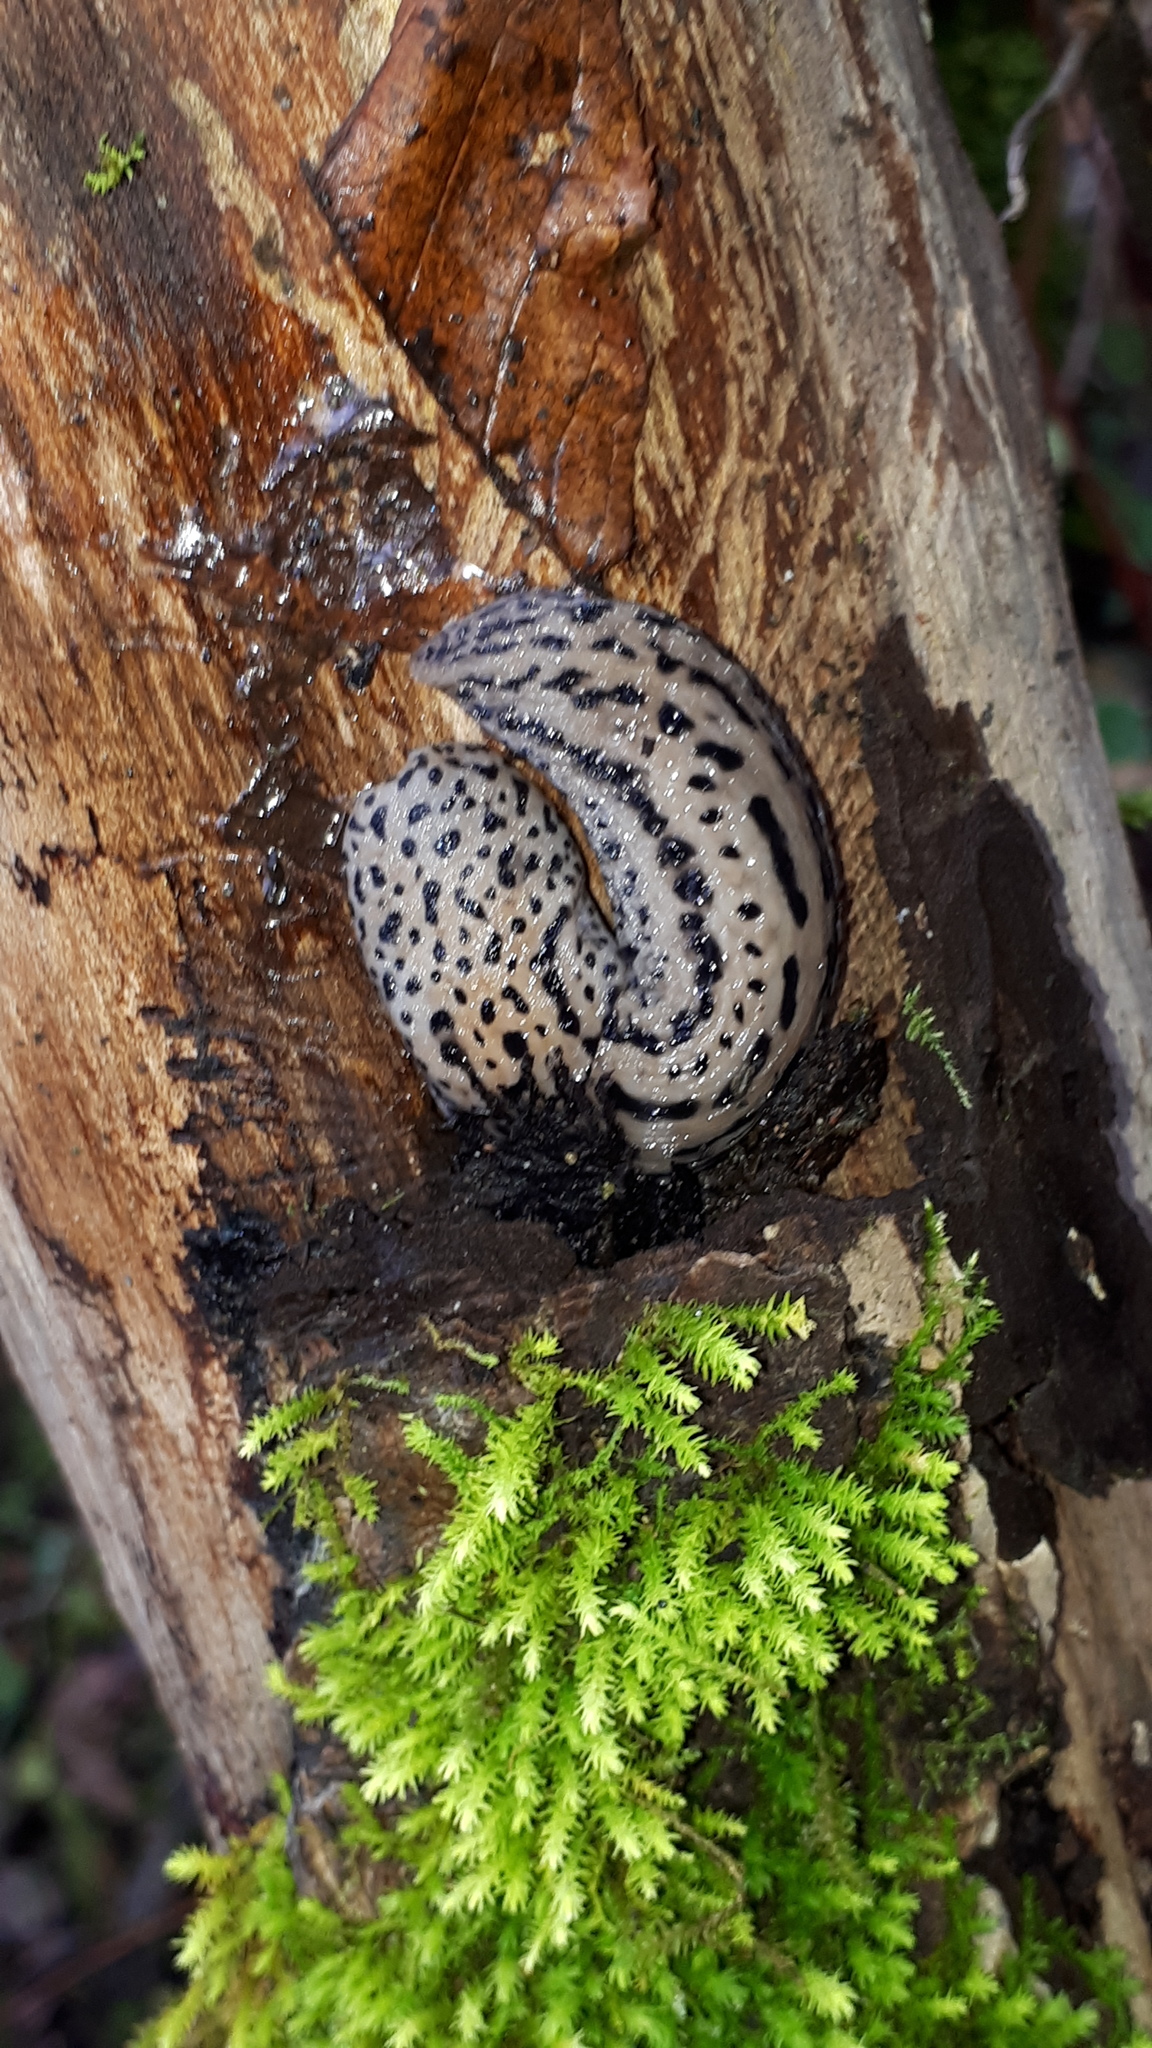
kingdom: Animalia
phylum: Mollusca
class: Gastropoda
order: Stylommatophora
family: Limacidae
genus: Limax
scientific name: Limax maximus
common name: Great grey slug
